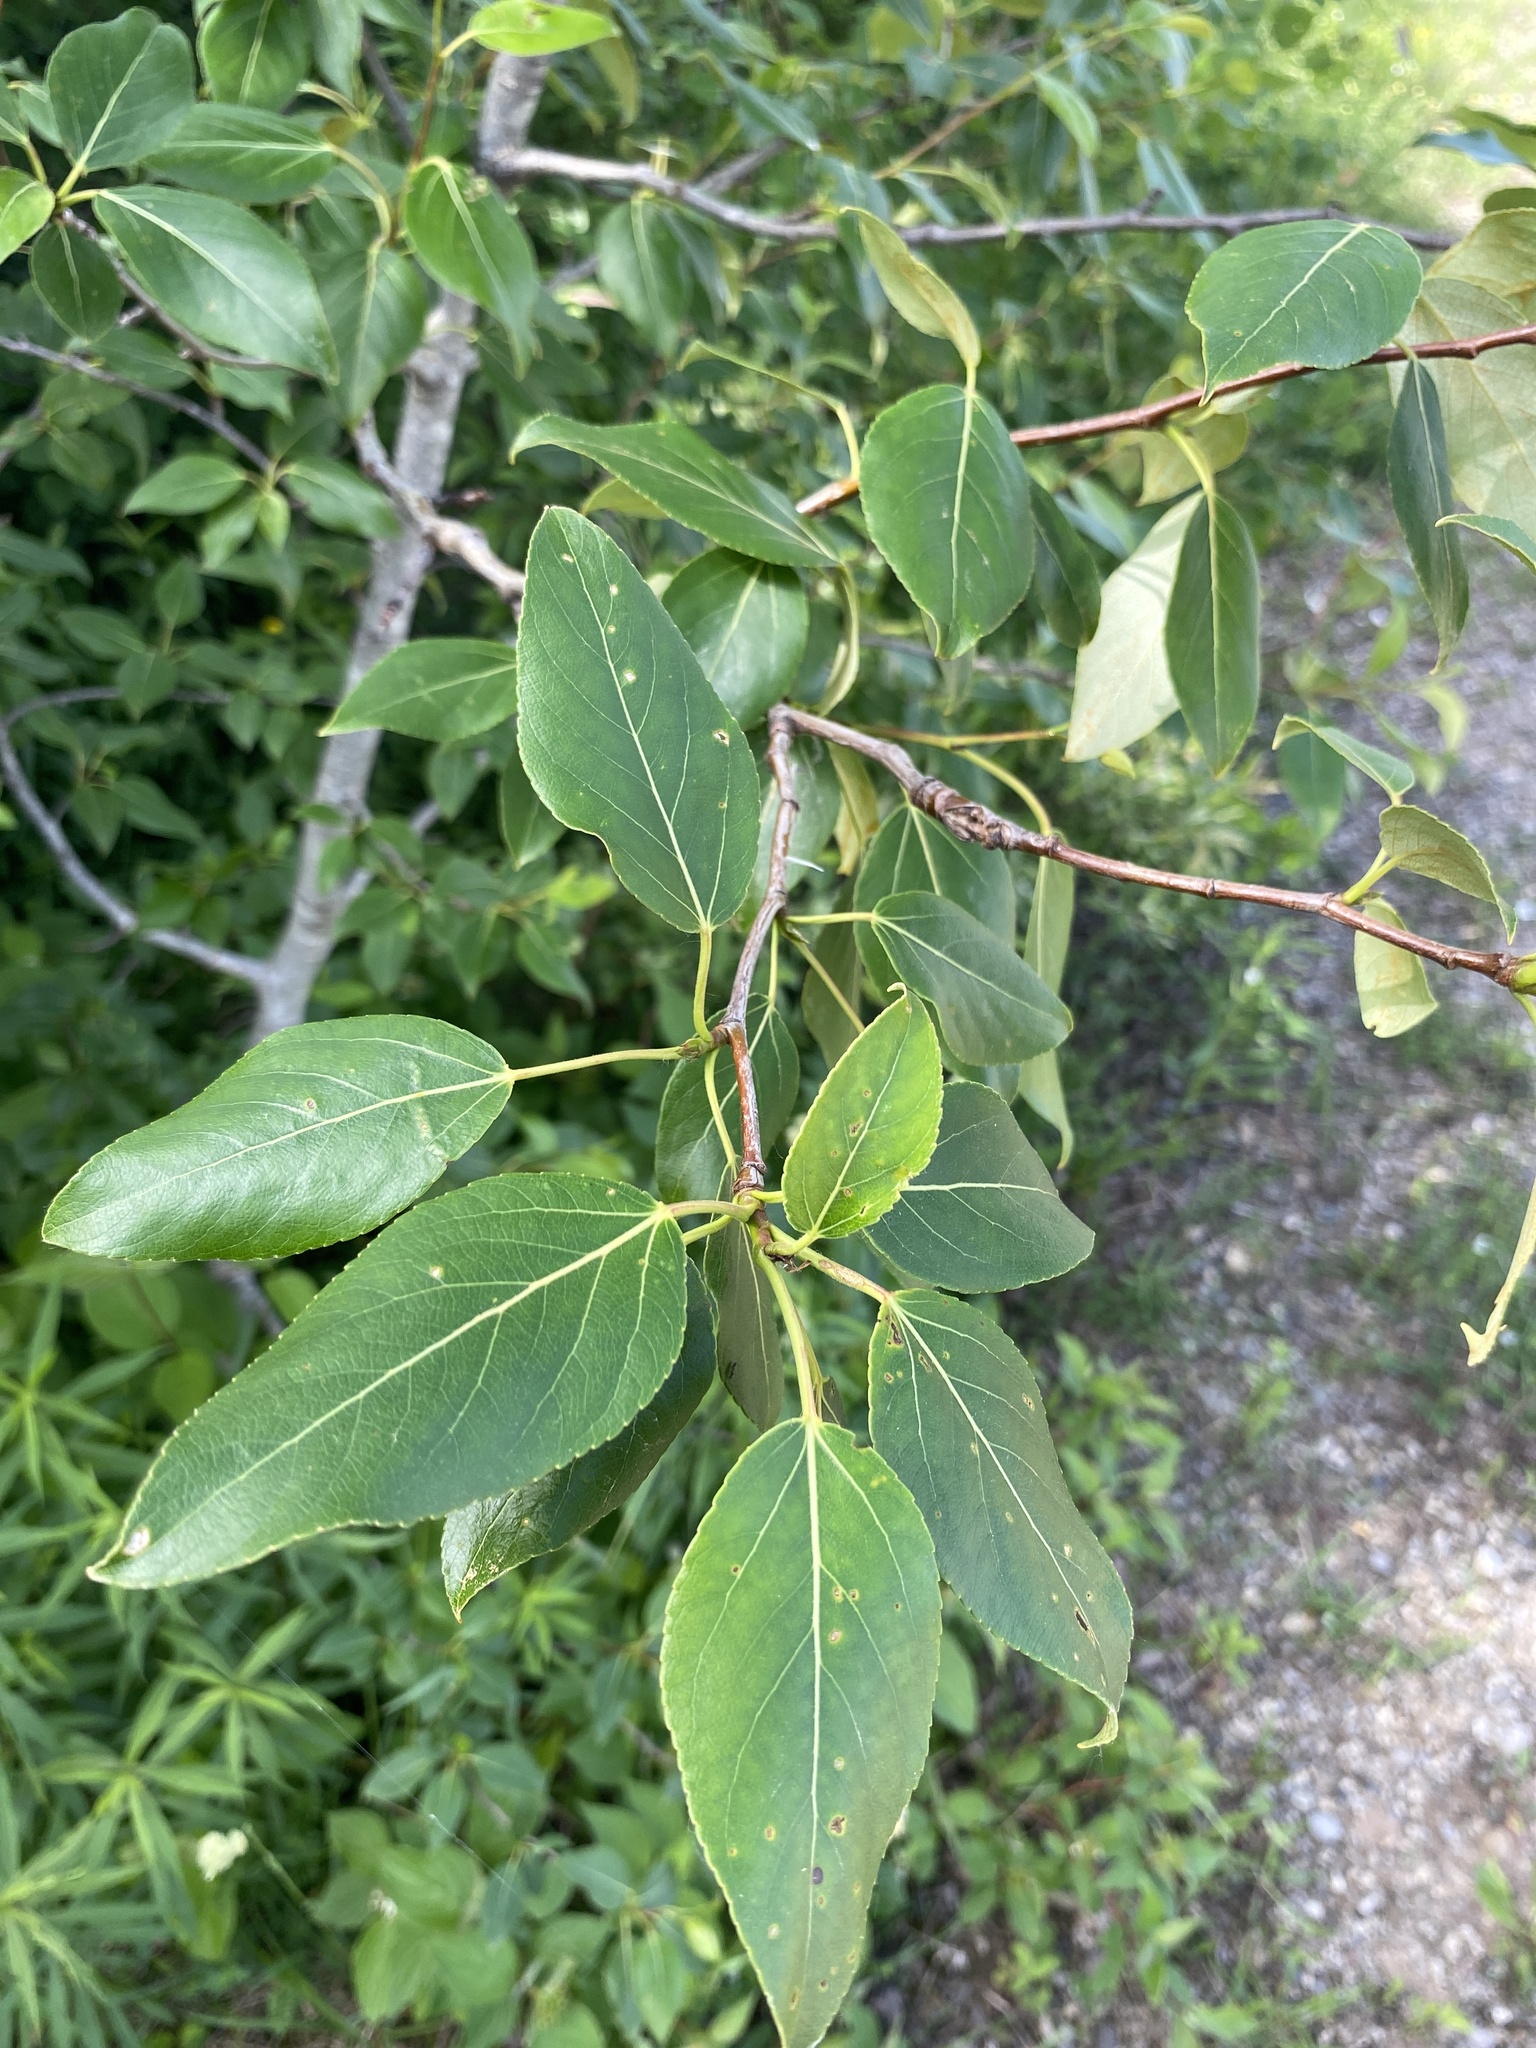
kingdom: Plantae
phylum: Tracheophyta
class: Magnoliopsida
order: Malpighiales
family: Salicaceae
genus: Populus
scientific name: Populus balsamifera
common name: Balsam poplar
